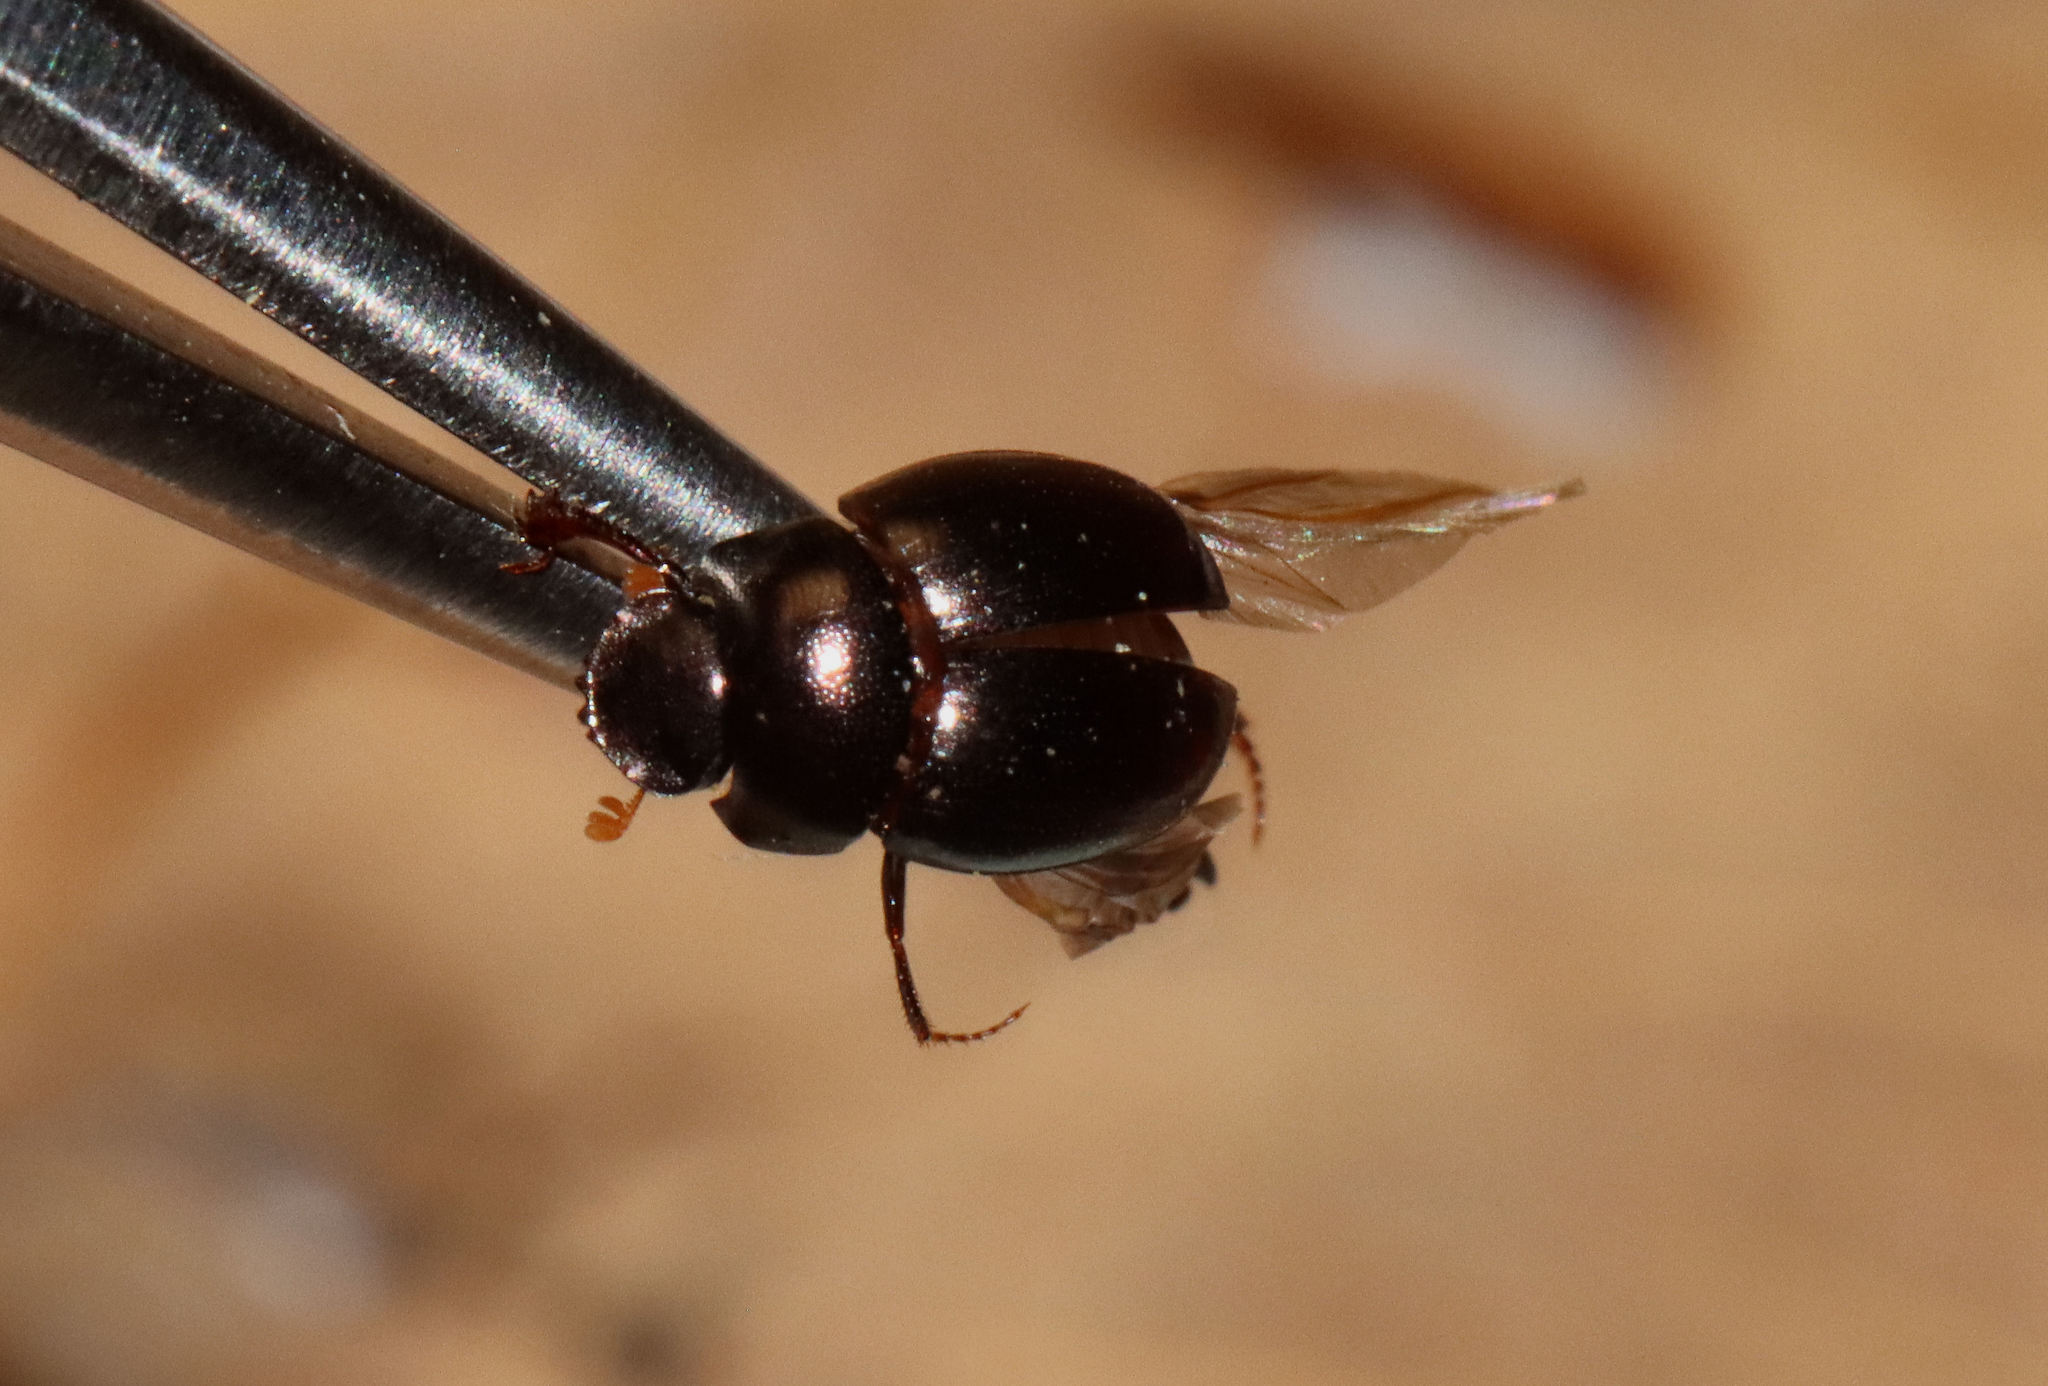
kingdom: Animalia
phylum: Arthropoda
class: Insecta
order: Coleoptera
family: Scarabaeidae
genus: Pseudocanthon
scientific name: Pseudocanthon perplexus
